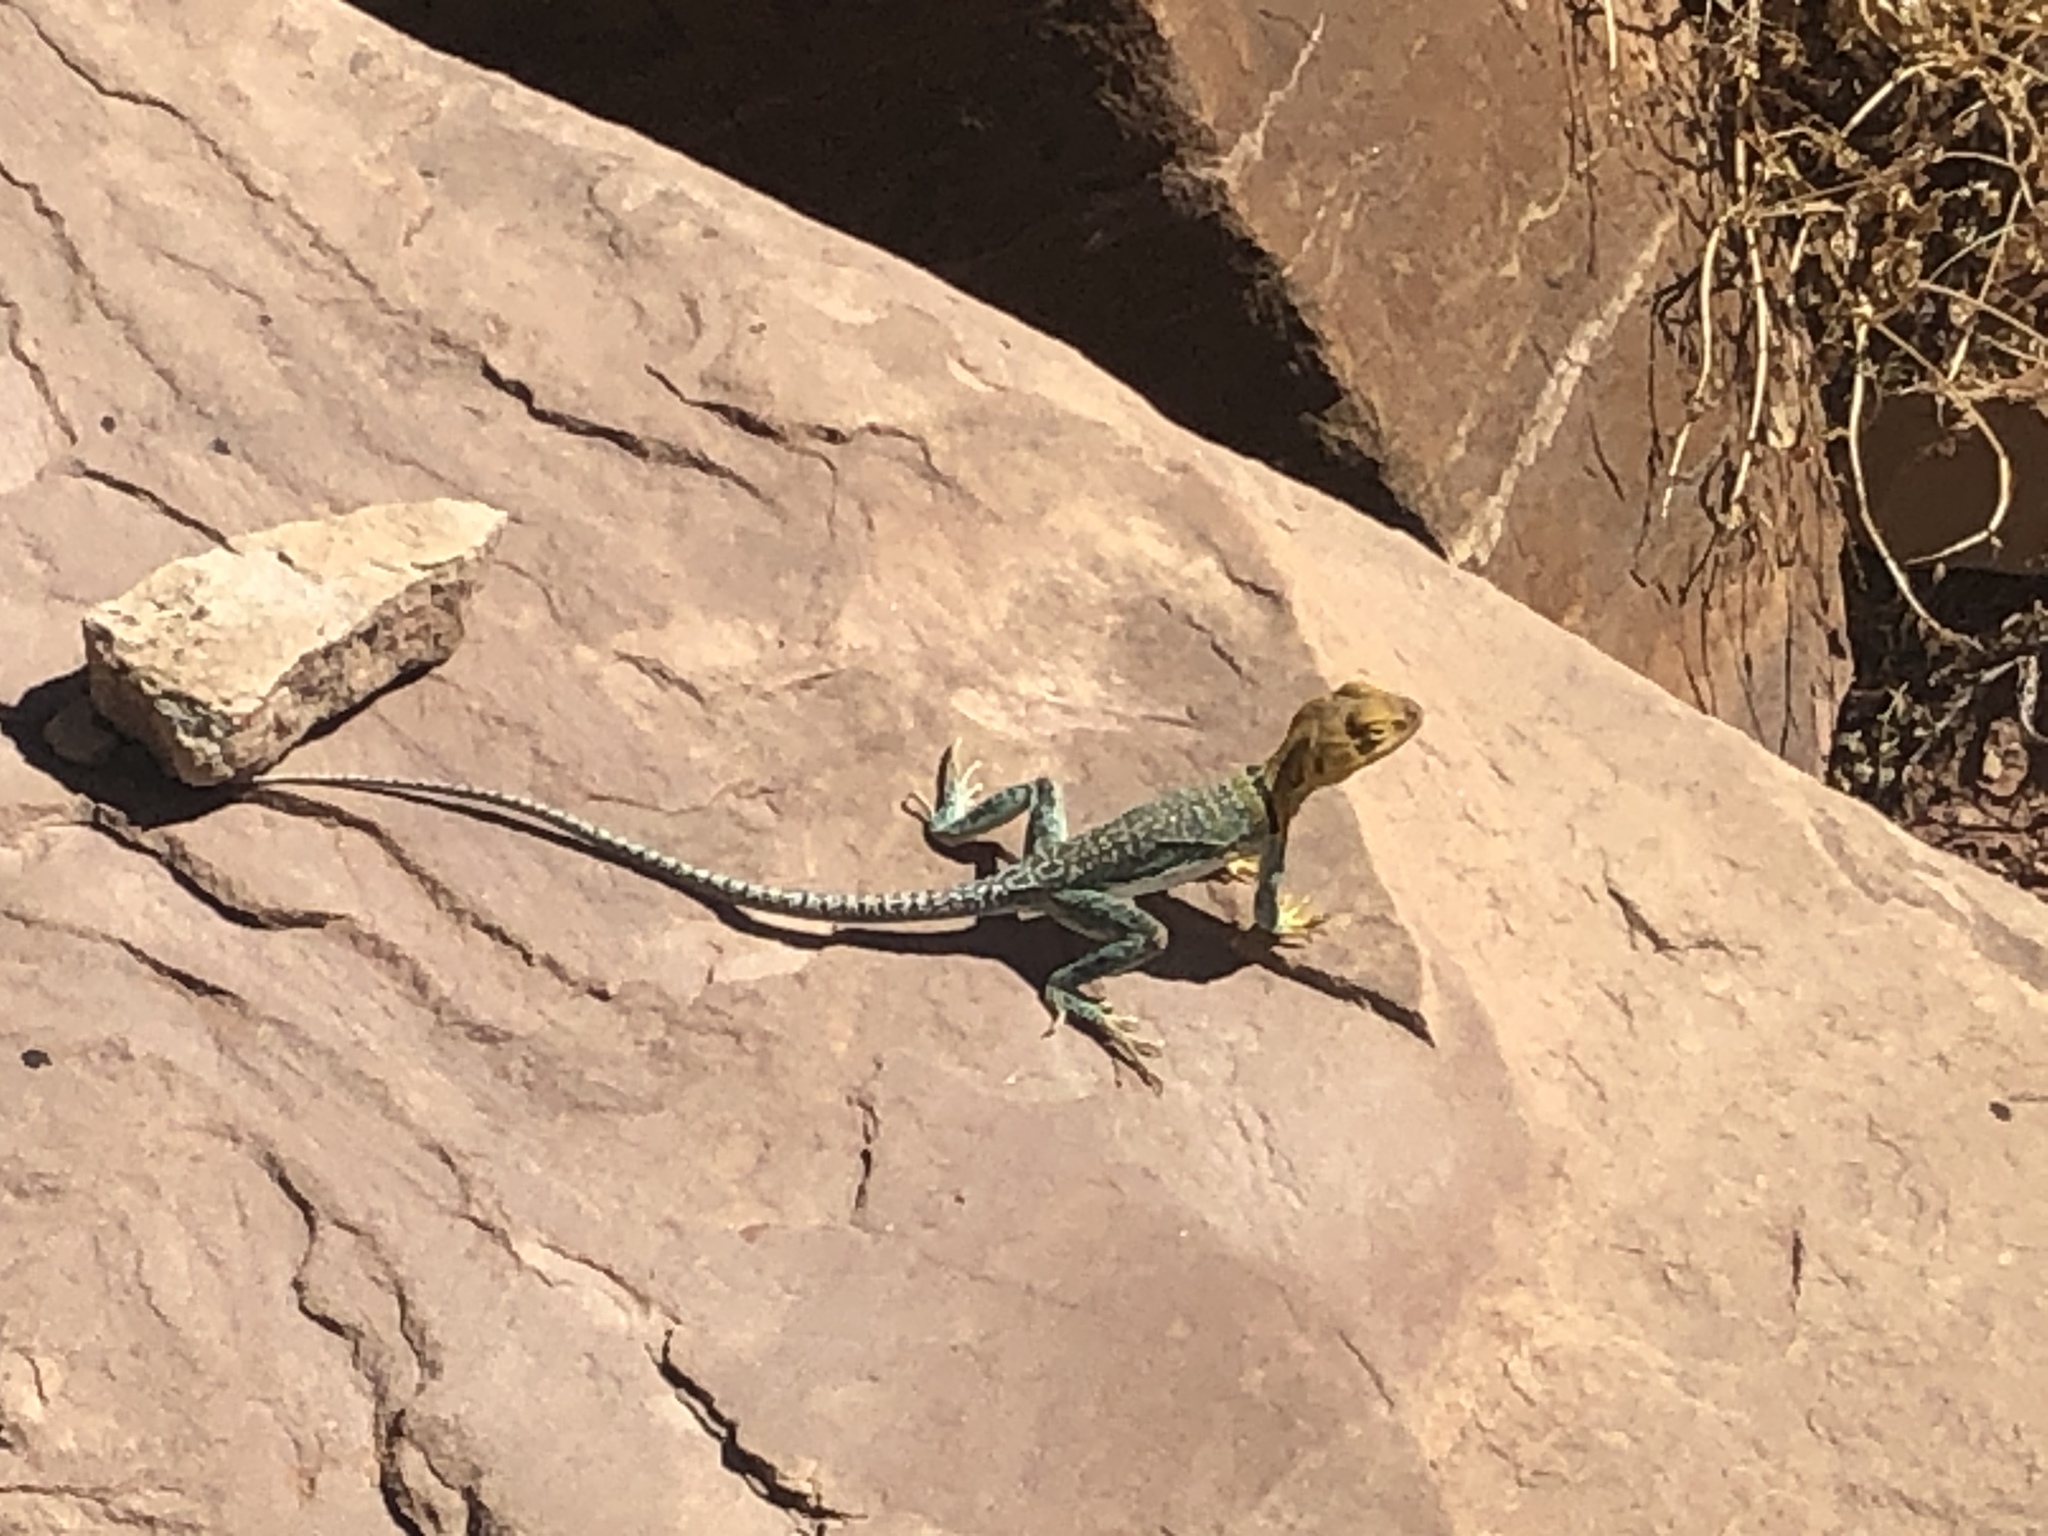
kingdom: Animalia
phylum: Chordata
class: Squamata
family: Crotaphytidae
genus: Crotaphytus
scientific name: Crotaphytus collaris
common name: Collared lizard
